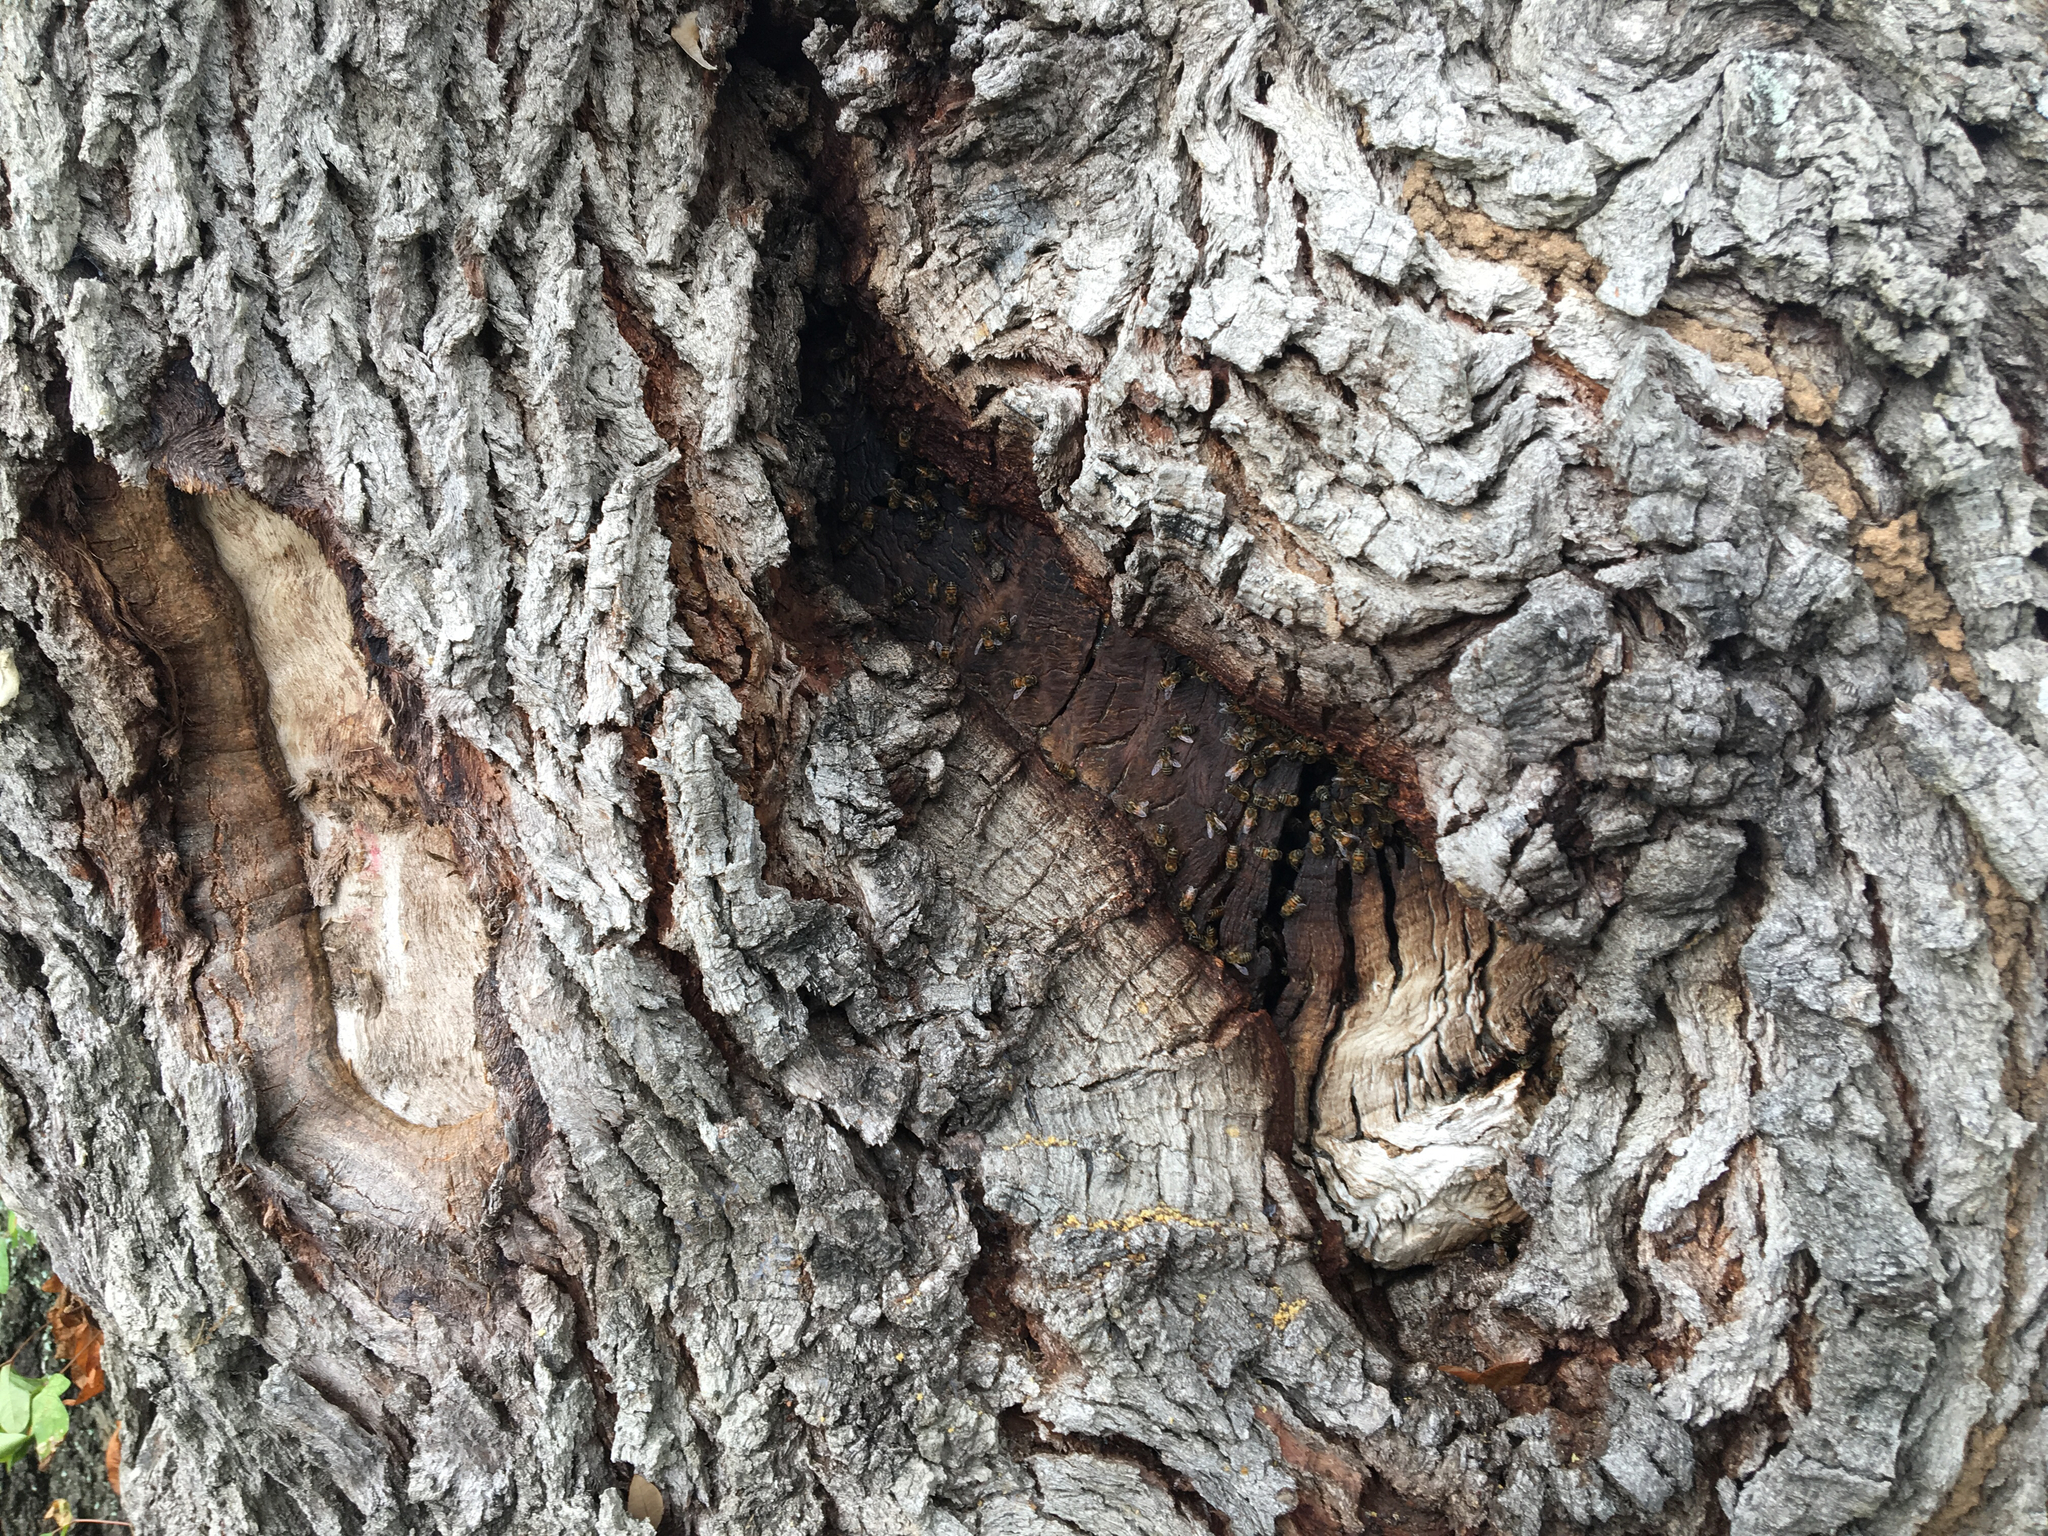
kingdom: Animalia
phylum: Arthropoda
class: Insecta
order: Hymenoptera
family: Apidae
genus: Apis
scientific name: Apis mellifera
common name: Honey bee
